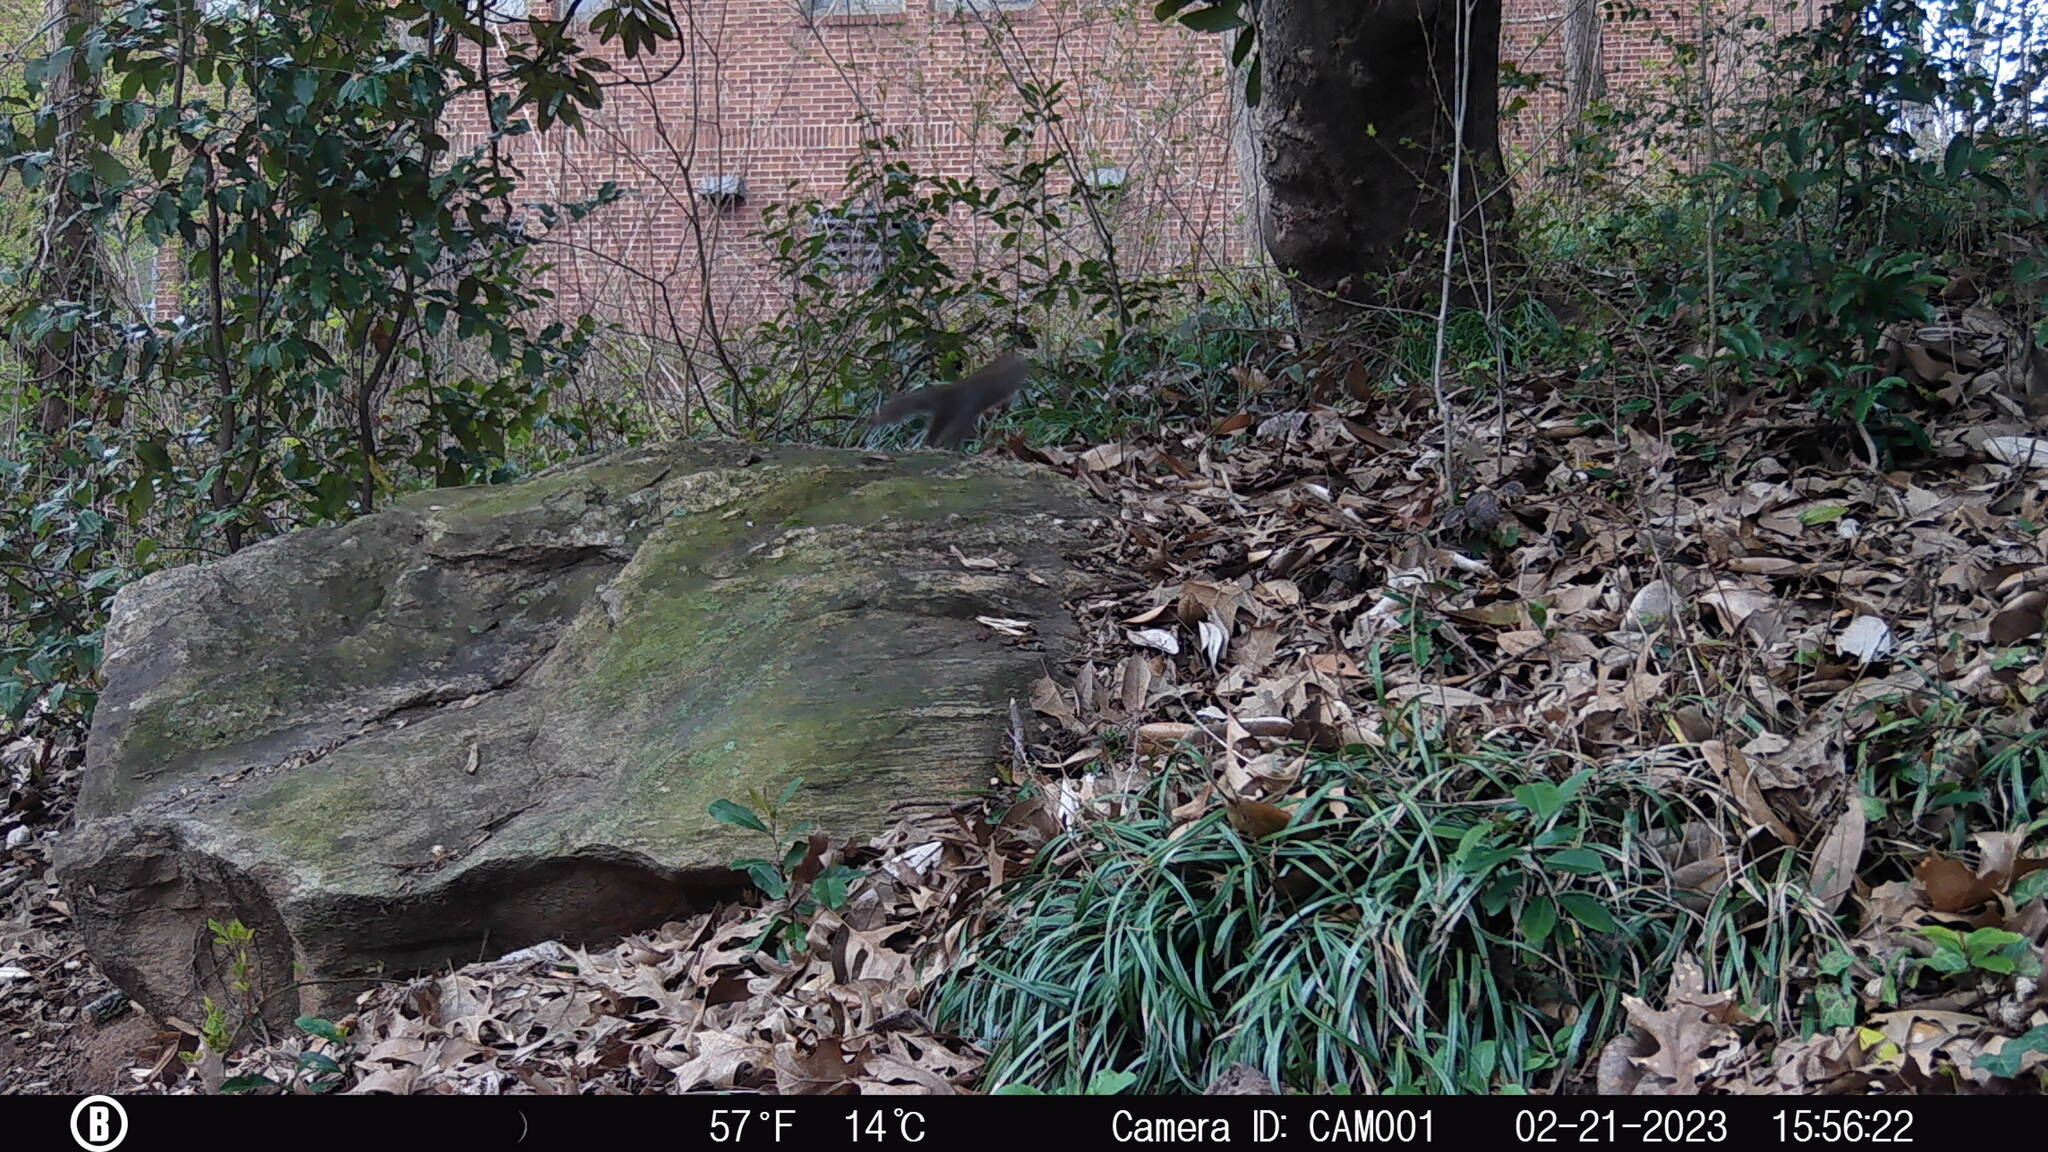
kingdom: Animalia
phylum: Chordata
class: Mammalia
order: Rodentia
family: Sciuridae
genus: Sciurus
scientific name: Sciurus carolinensis
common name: Eastern gray squirrel
